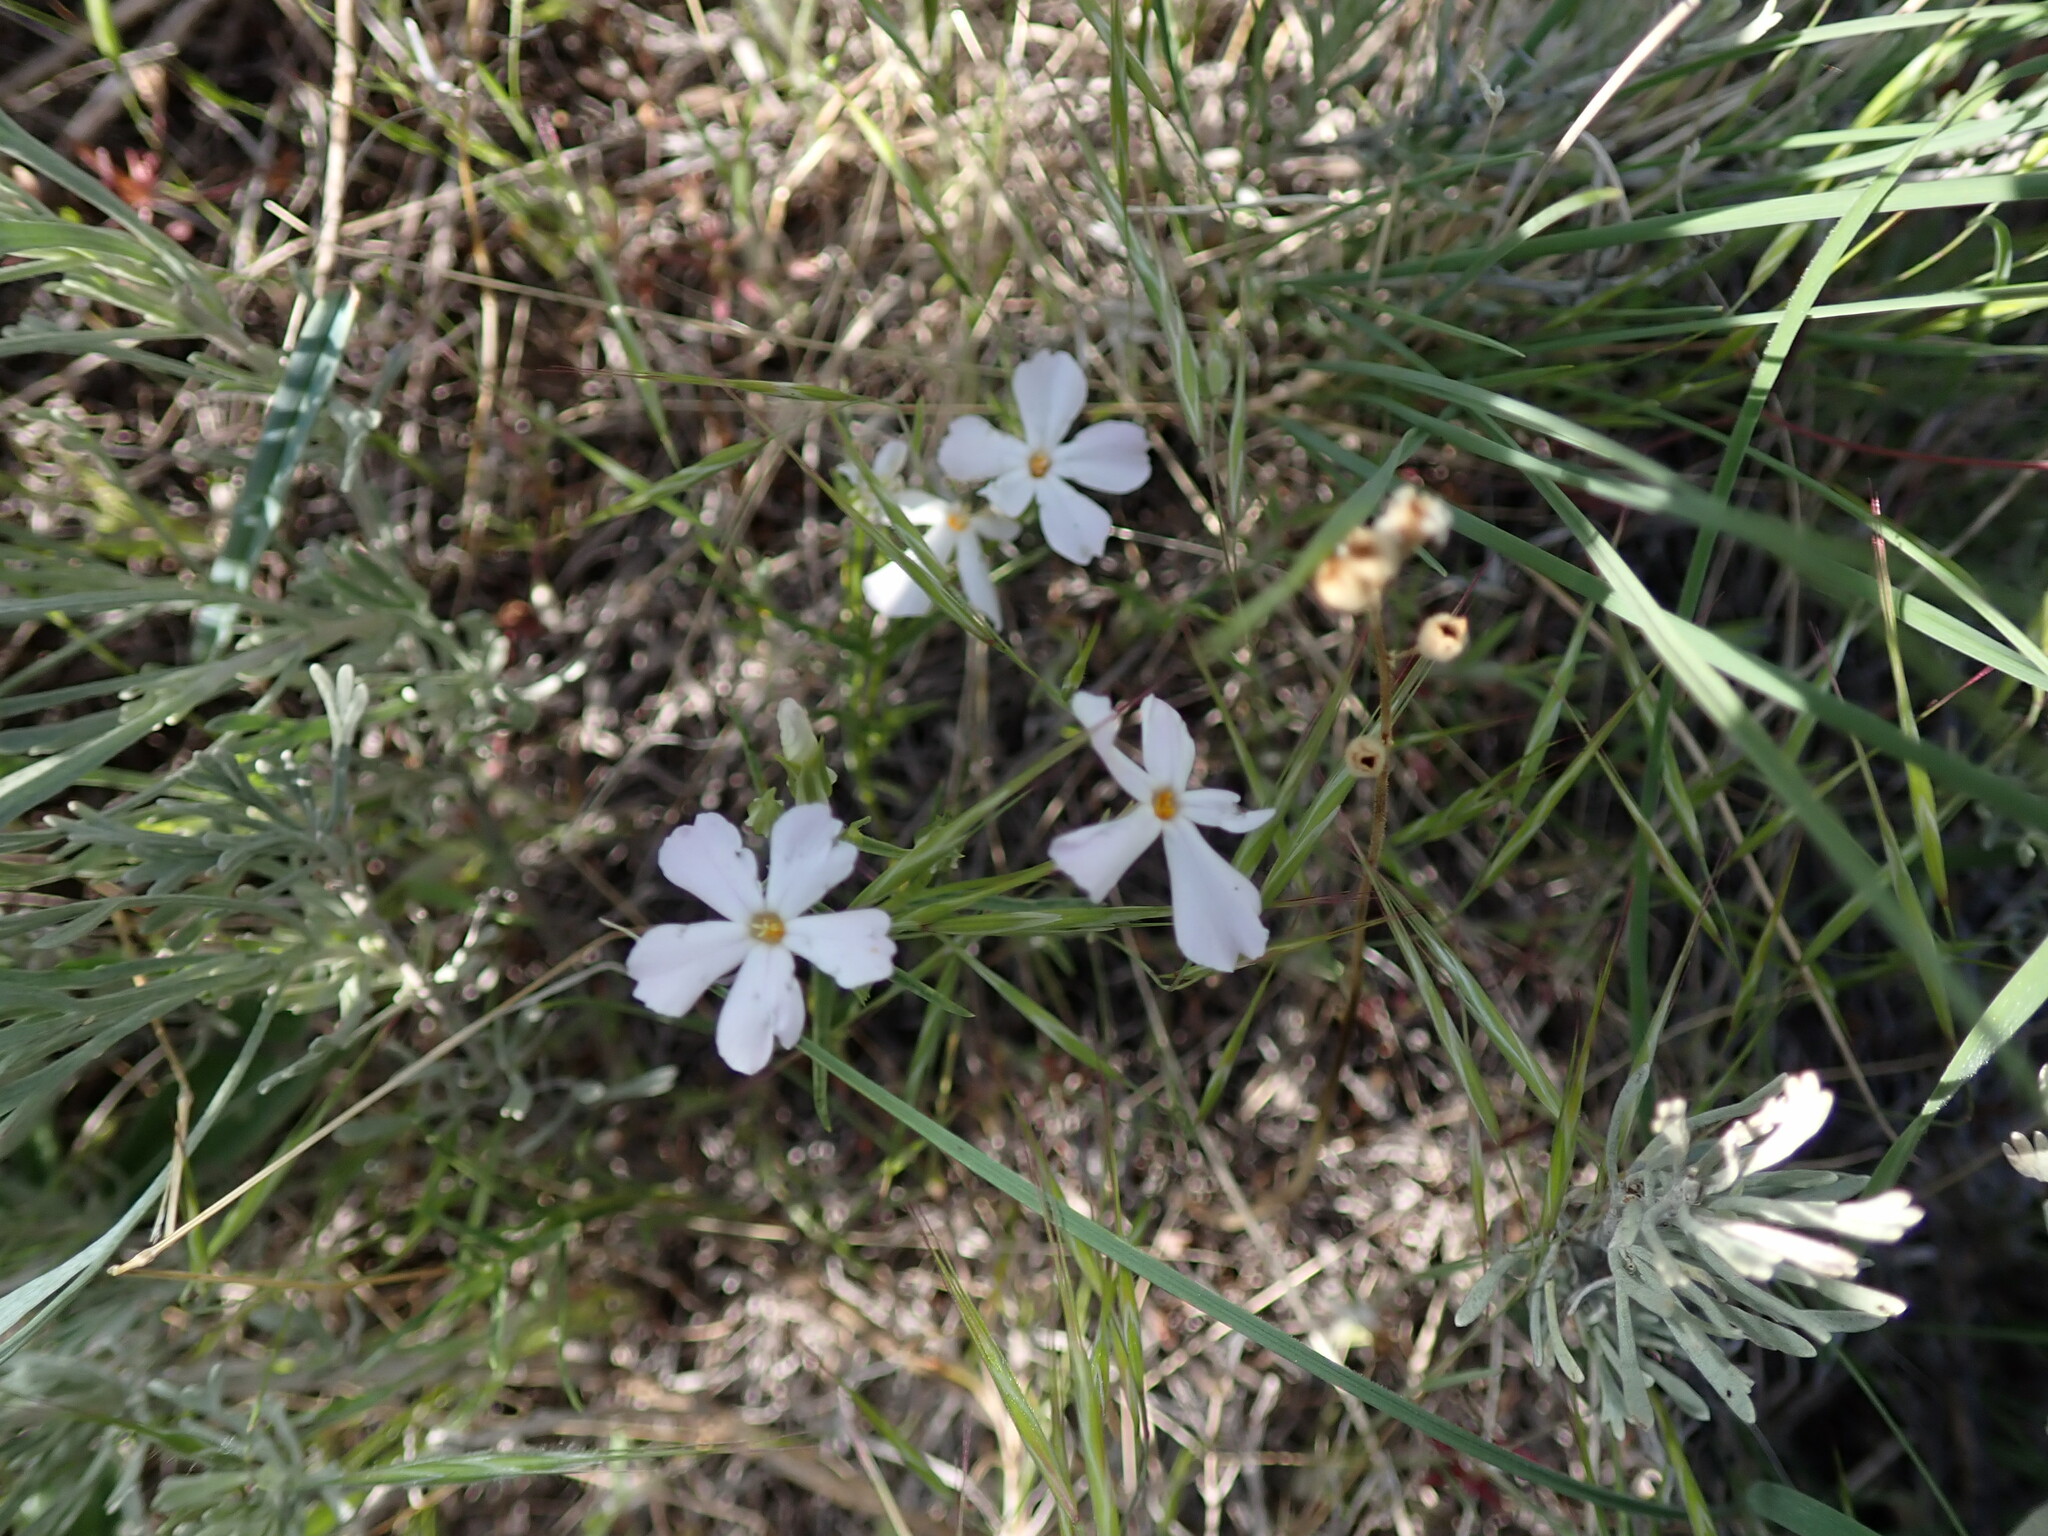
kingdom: Plantae
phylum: Tracheophyta
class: Magnoliopsida
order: Ericales
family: Polemoniaceae
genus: Phlox
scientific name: Phlox longifolia
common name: Longleaf phlox
